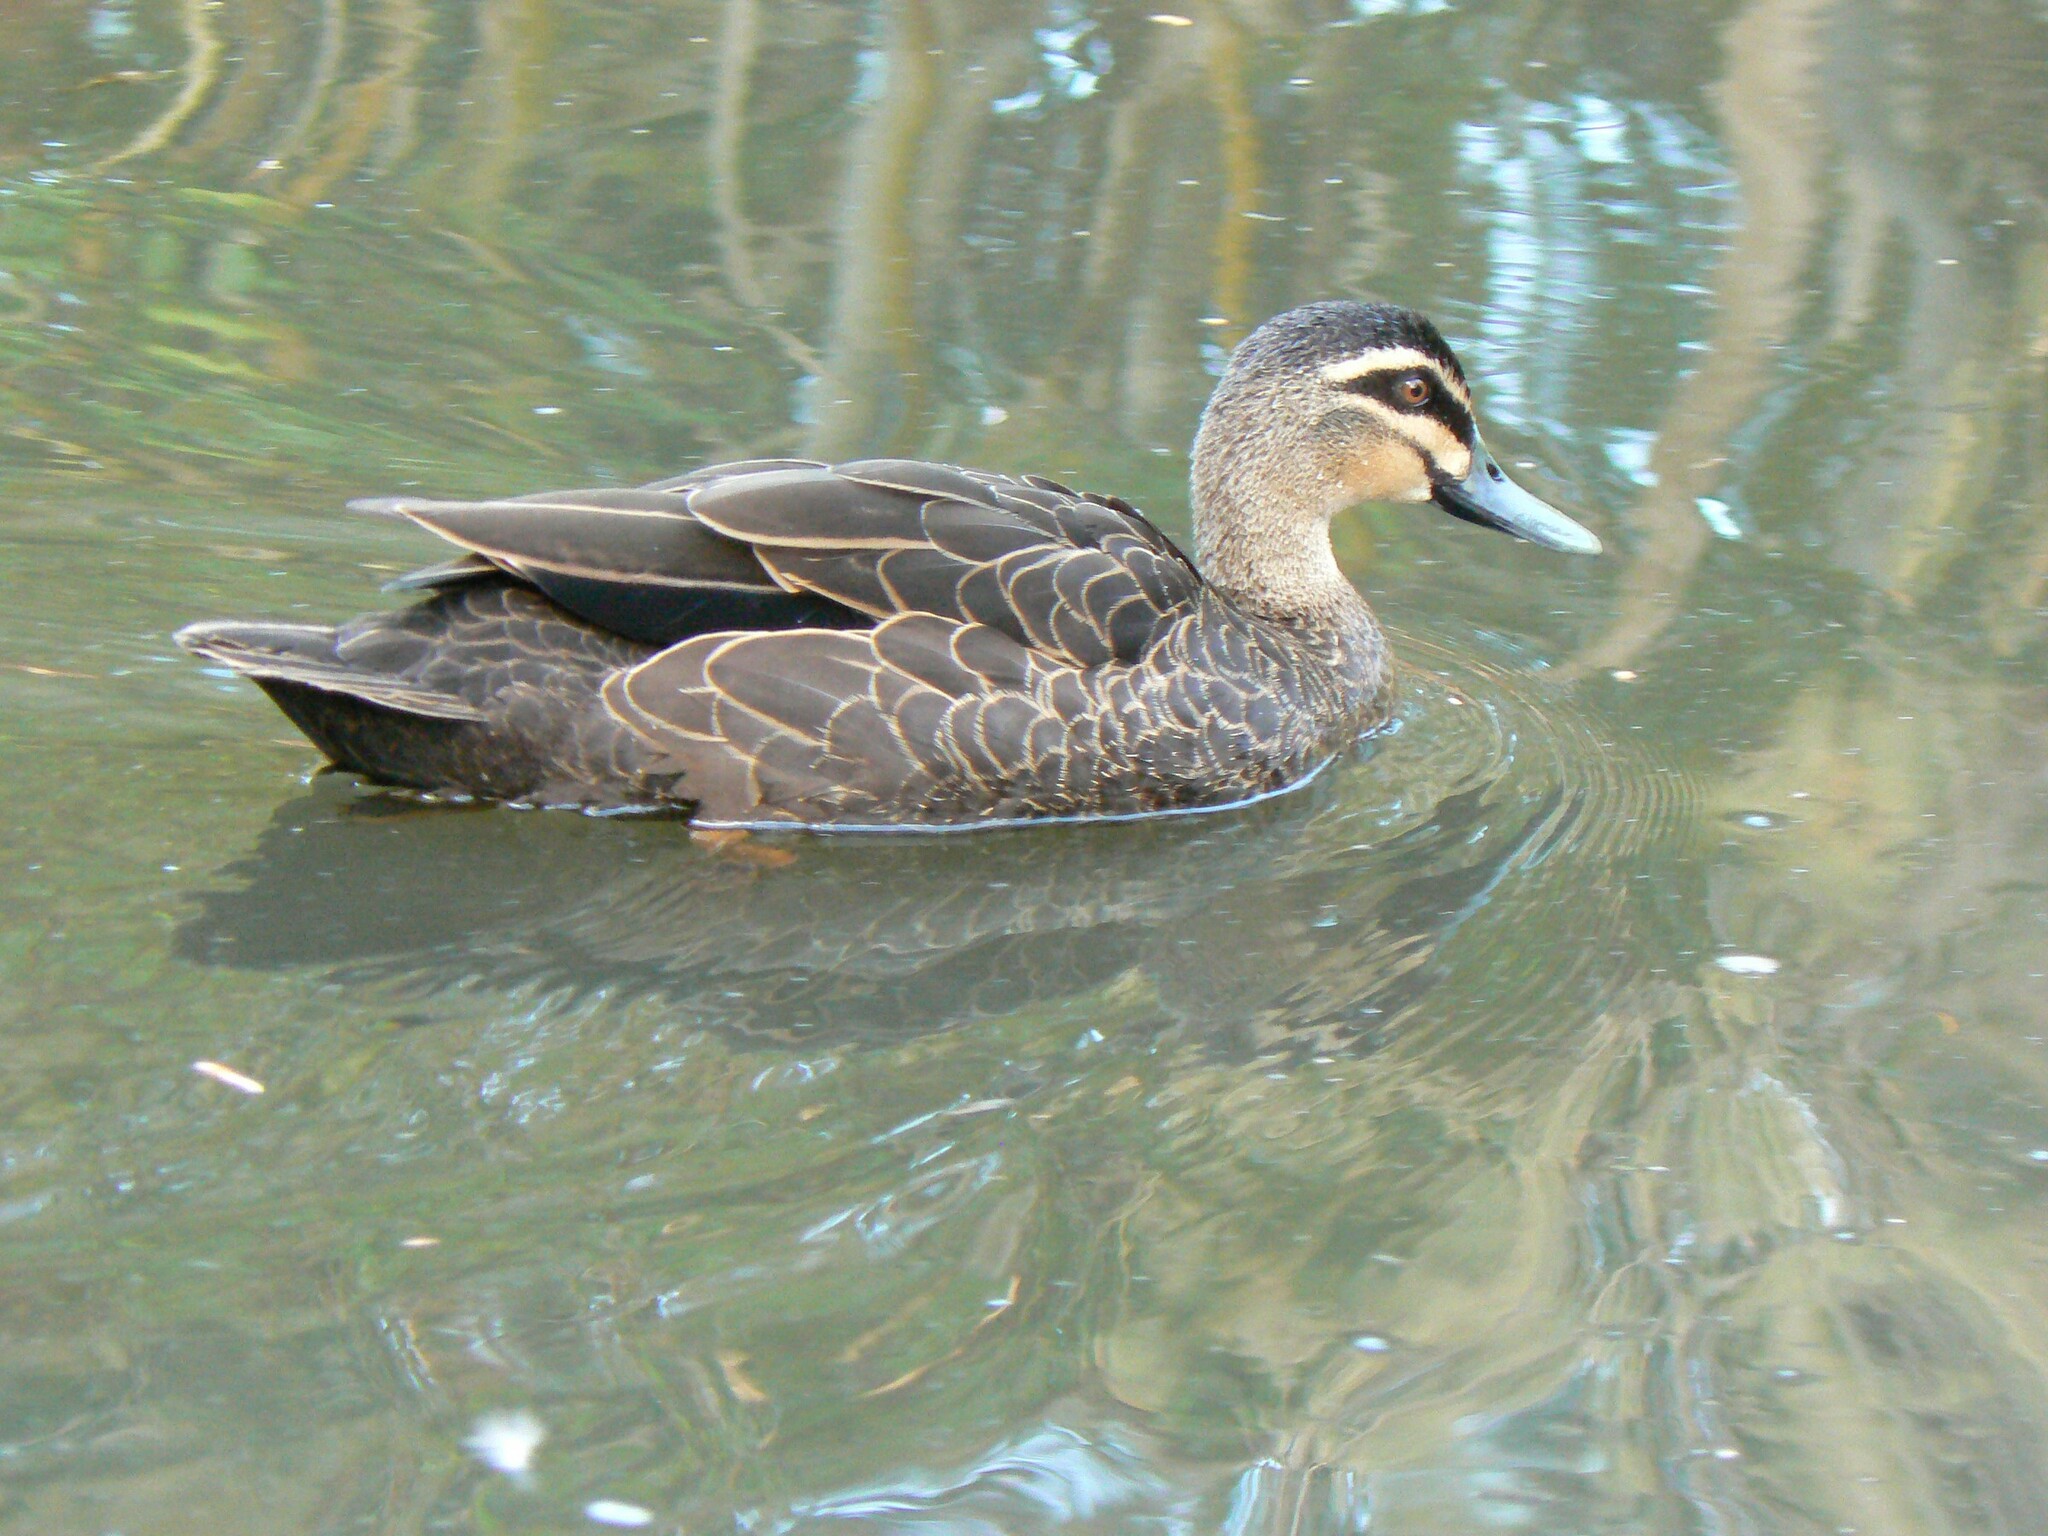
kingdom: Animalia
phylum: Chordata
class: Aves
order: Anseriformes
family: Anatidae
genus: Anas
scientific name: Anas superciliosa
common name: Pacific black duck
